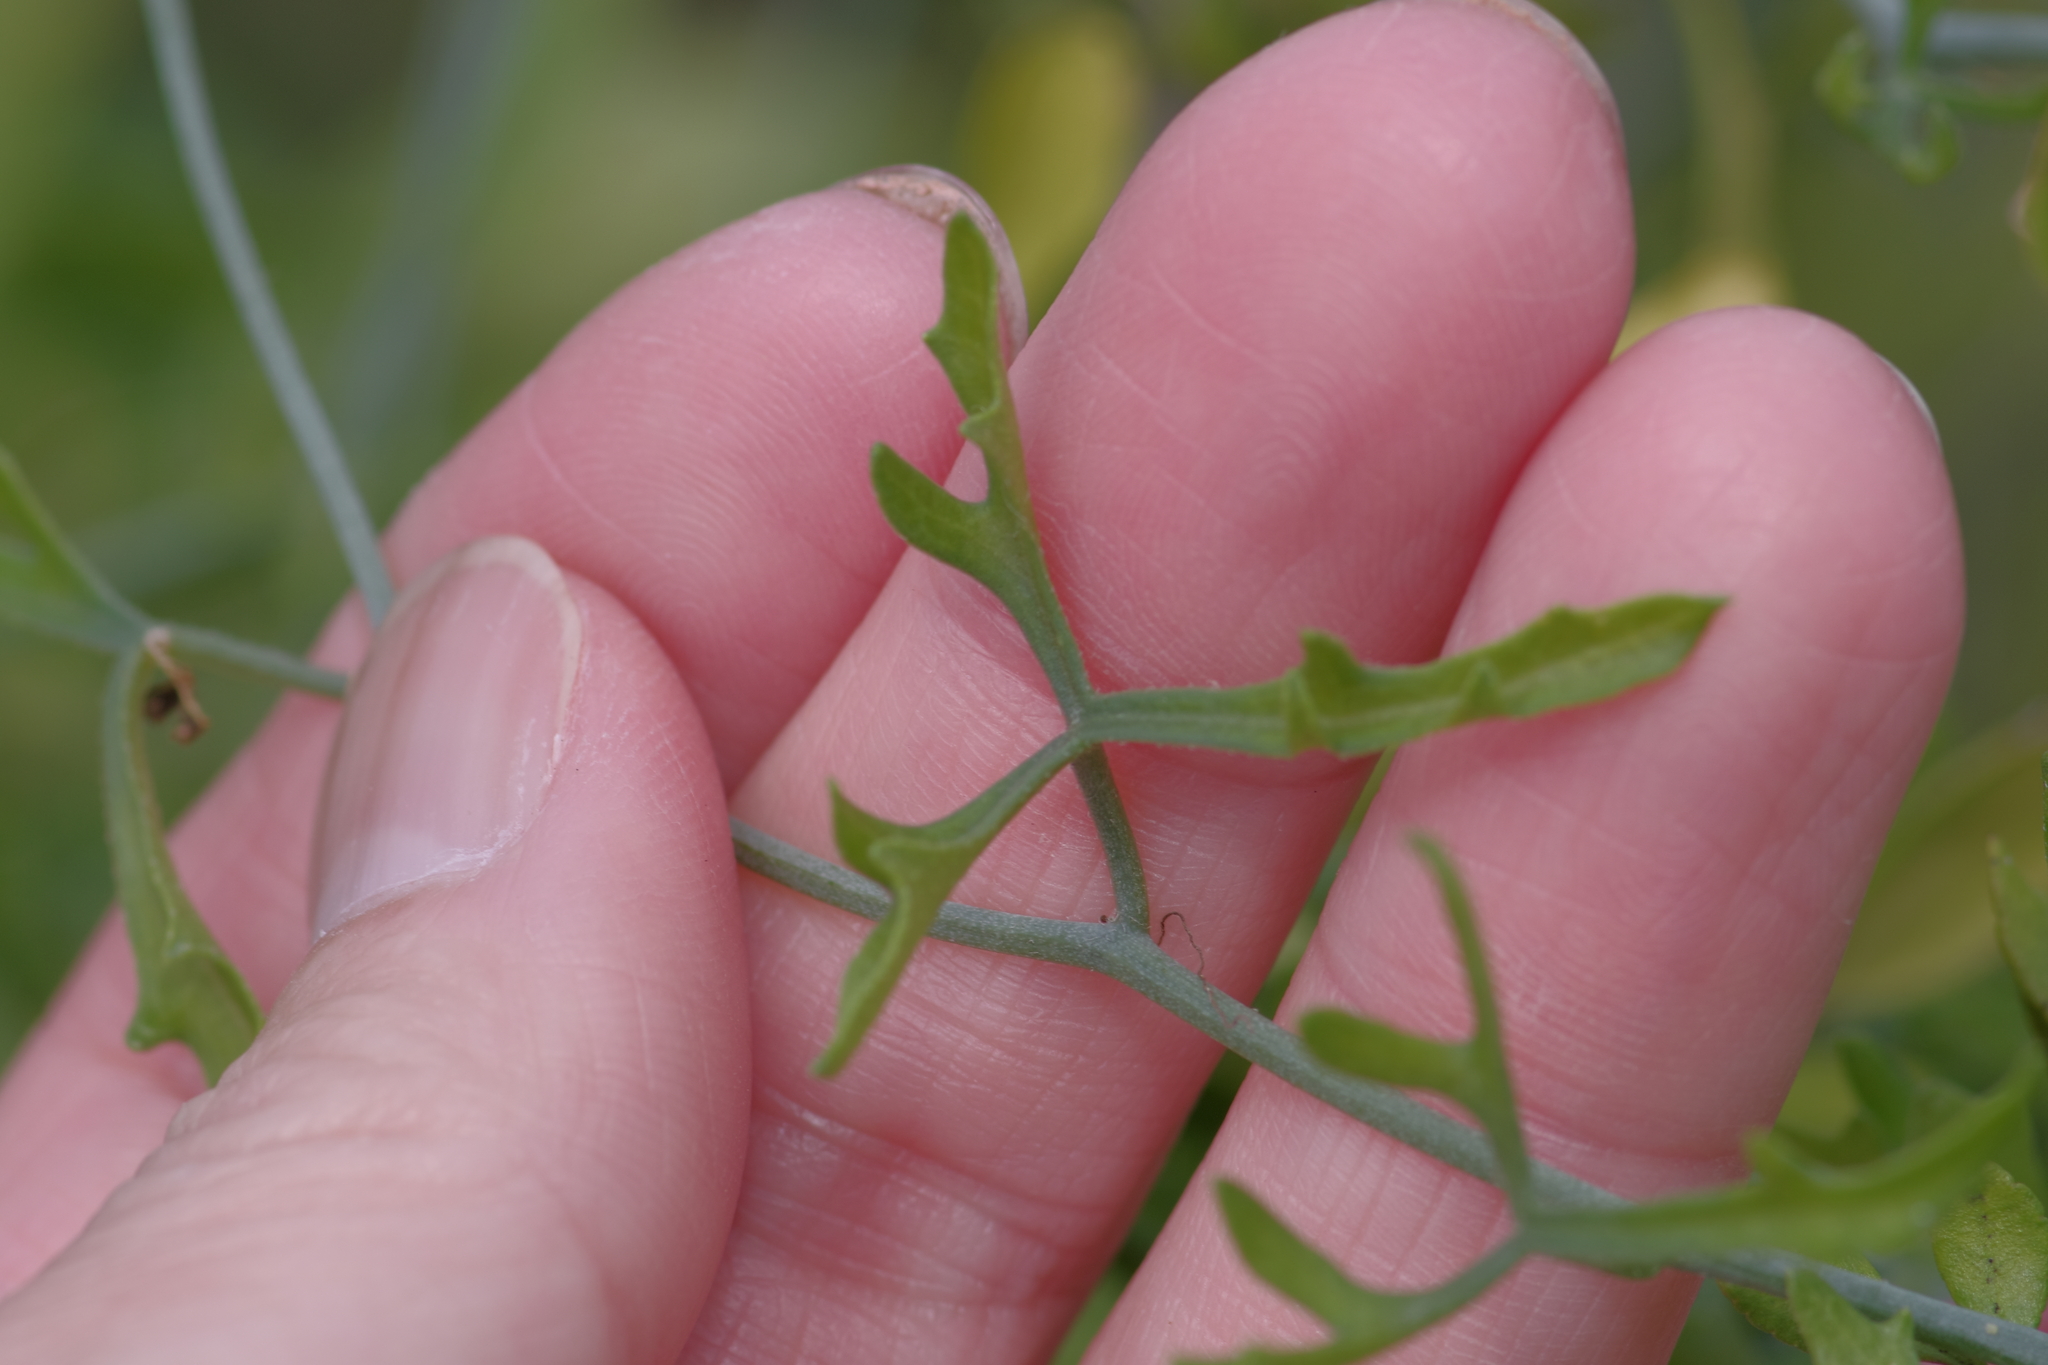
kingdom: Plantae
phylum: Tracheophyta
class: Magnoliopsida
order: Cucurbitales
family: Cucurbitaceae
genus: Ibervillea
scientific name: Ibervillea tenuisecta
